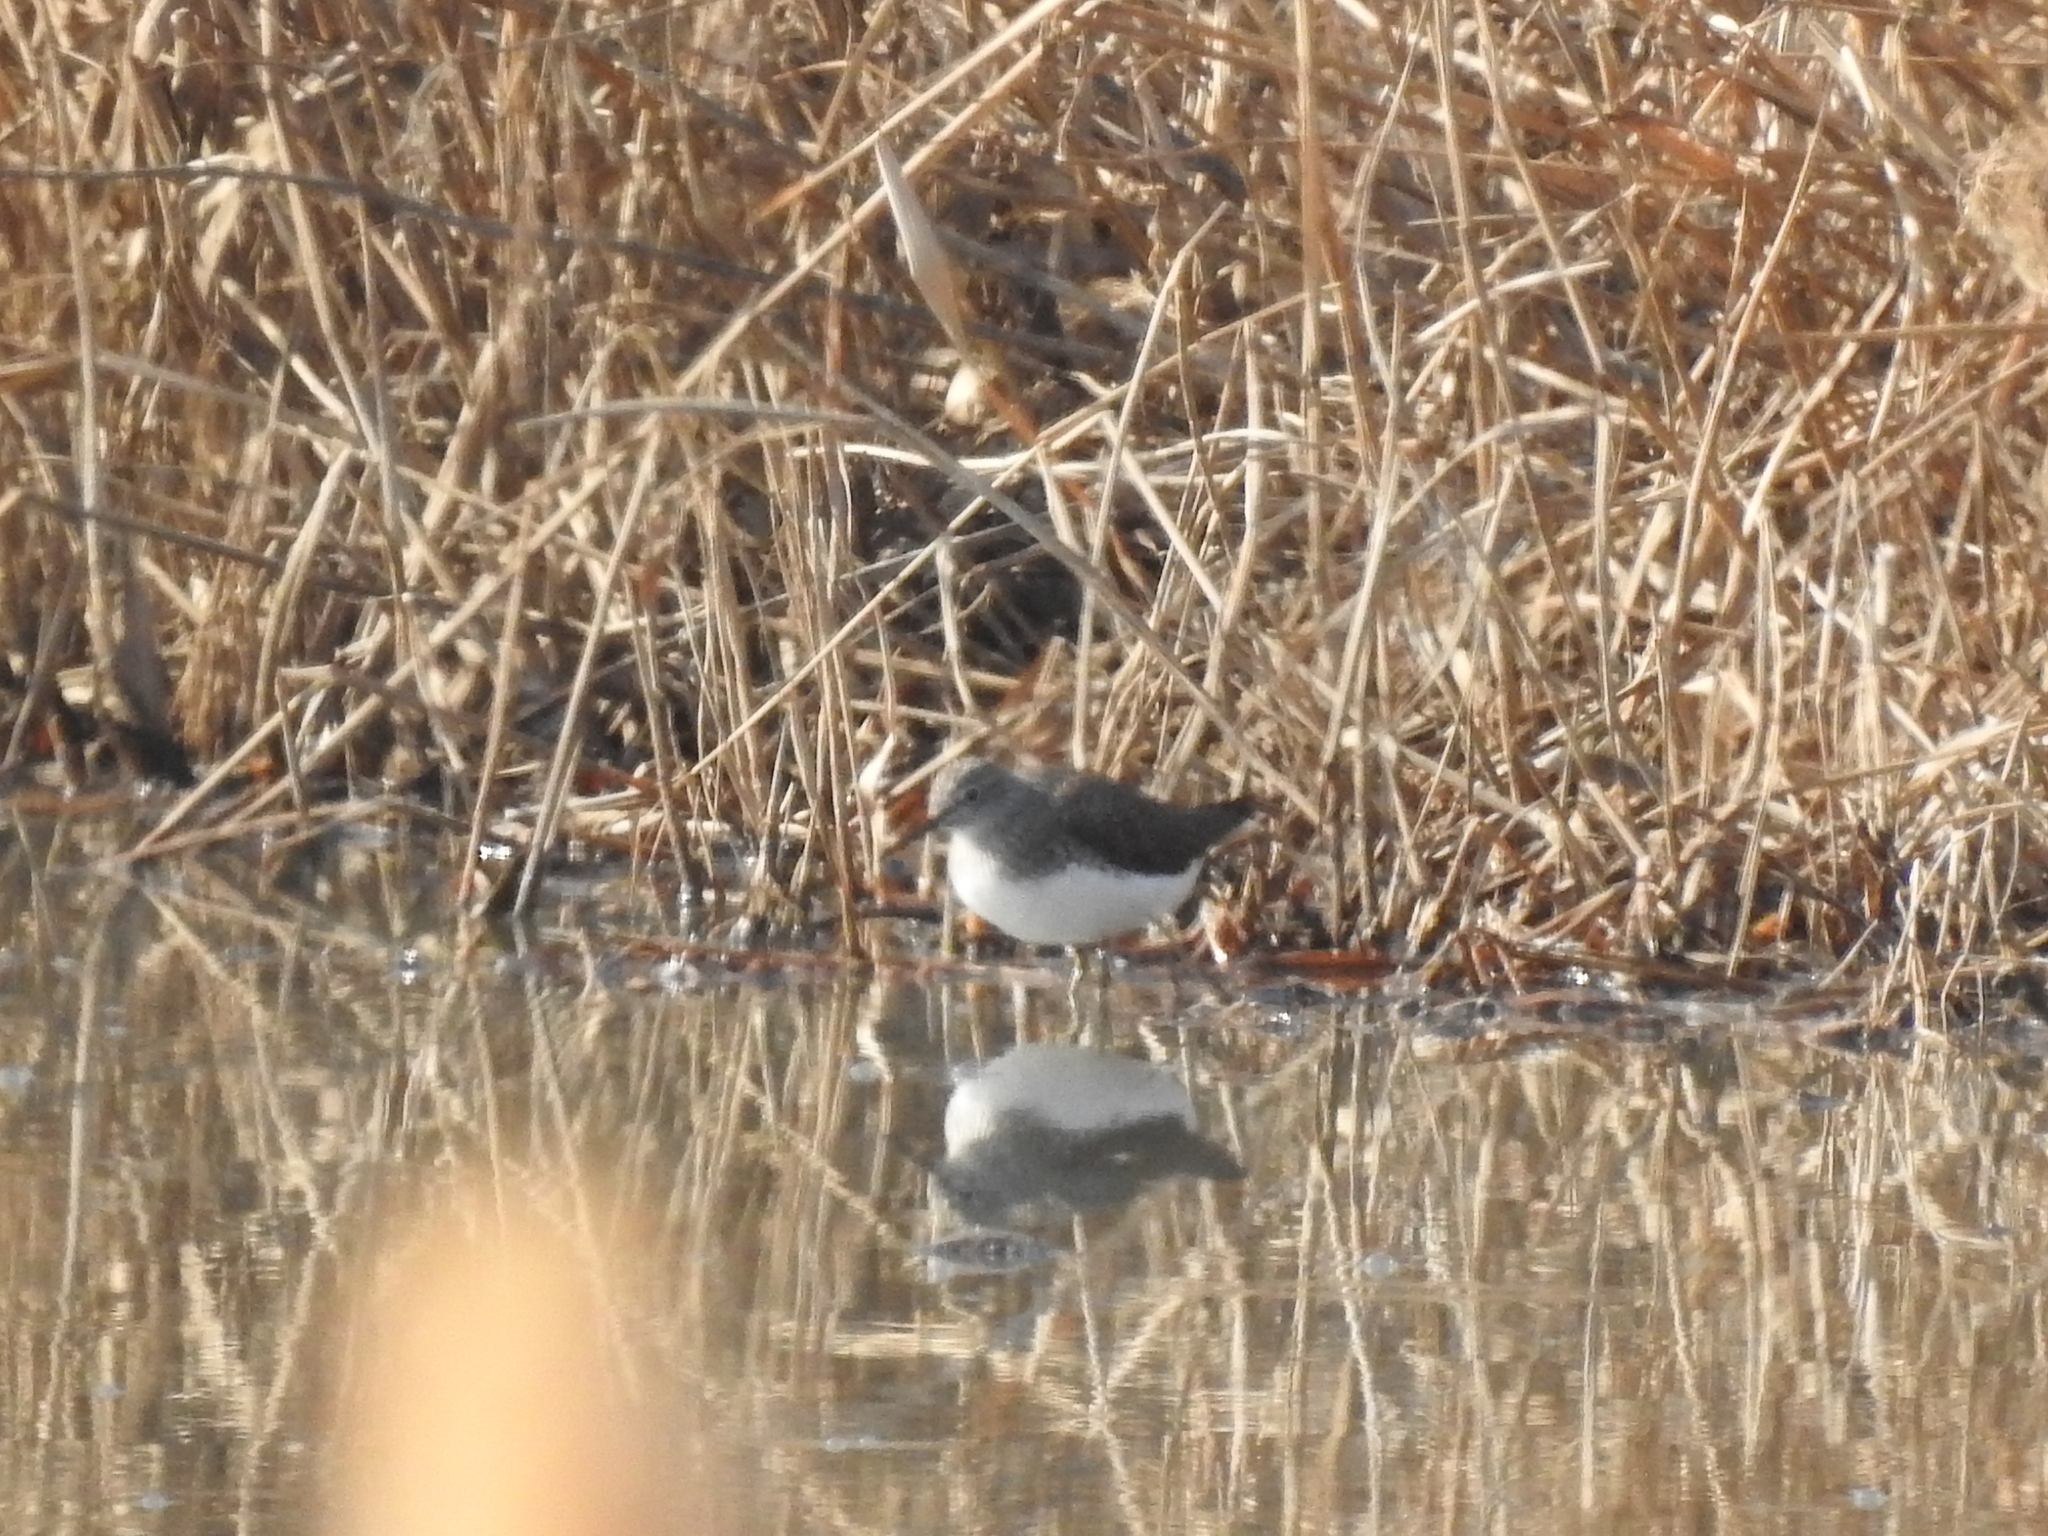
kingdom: Animalia
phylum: Chordata
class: Aves
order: Charadriiformes
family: Scolopacidae
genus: Tringa
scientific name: Tringa ochropus
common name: Green sandpiper
